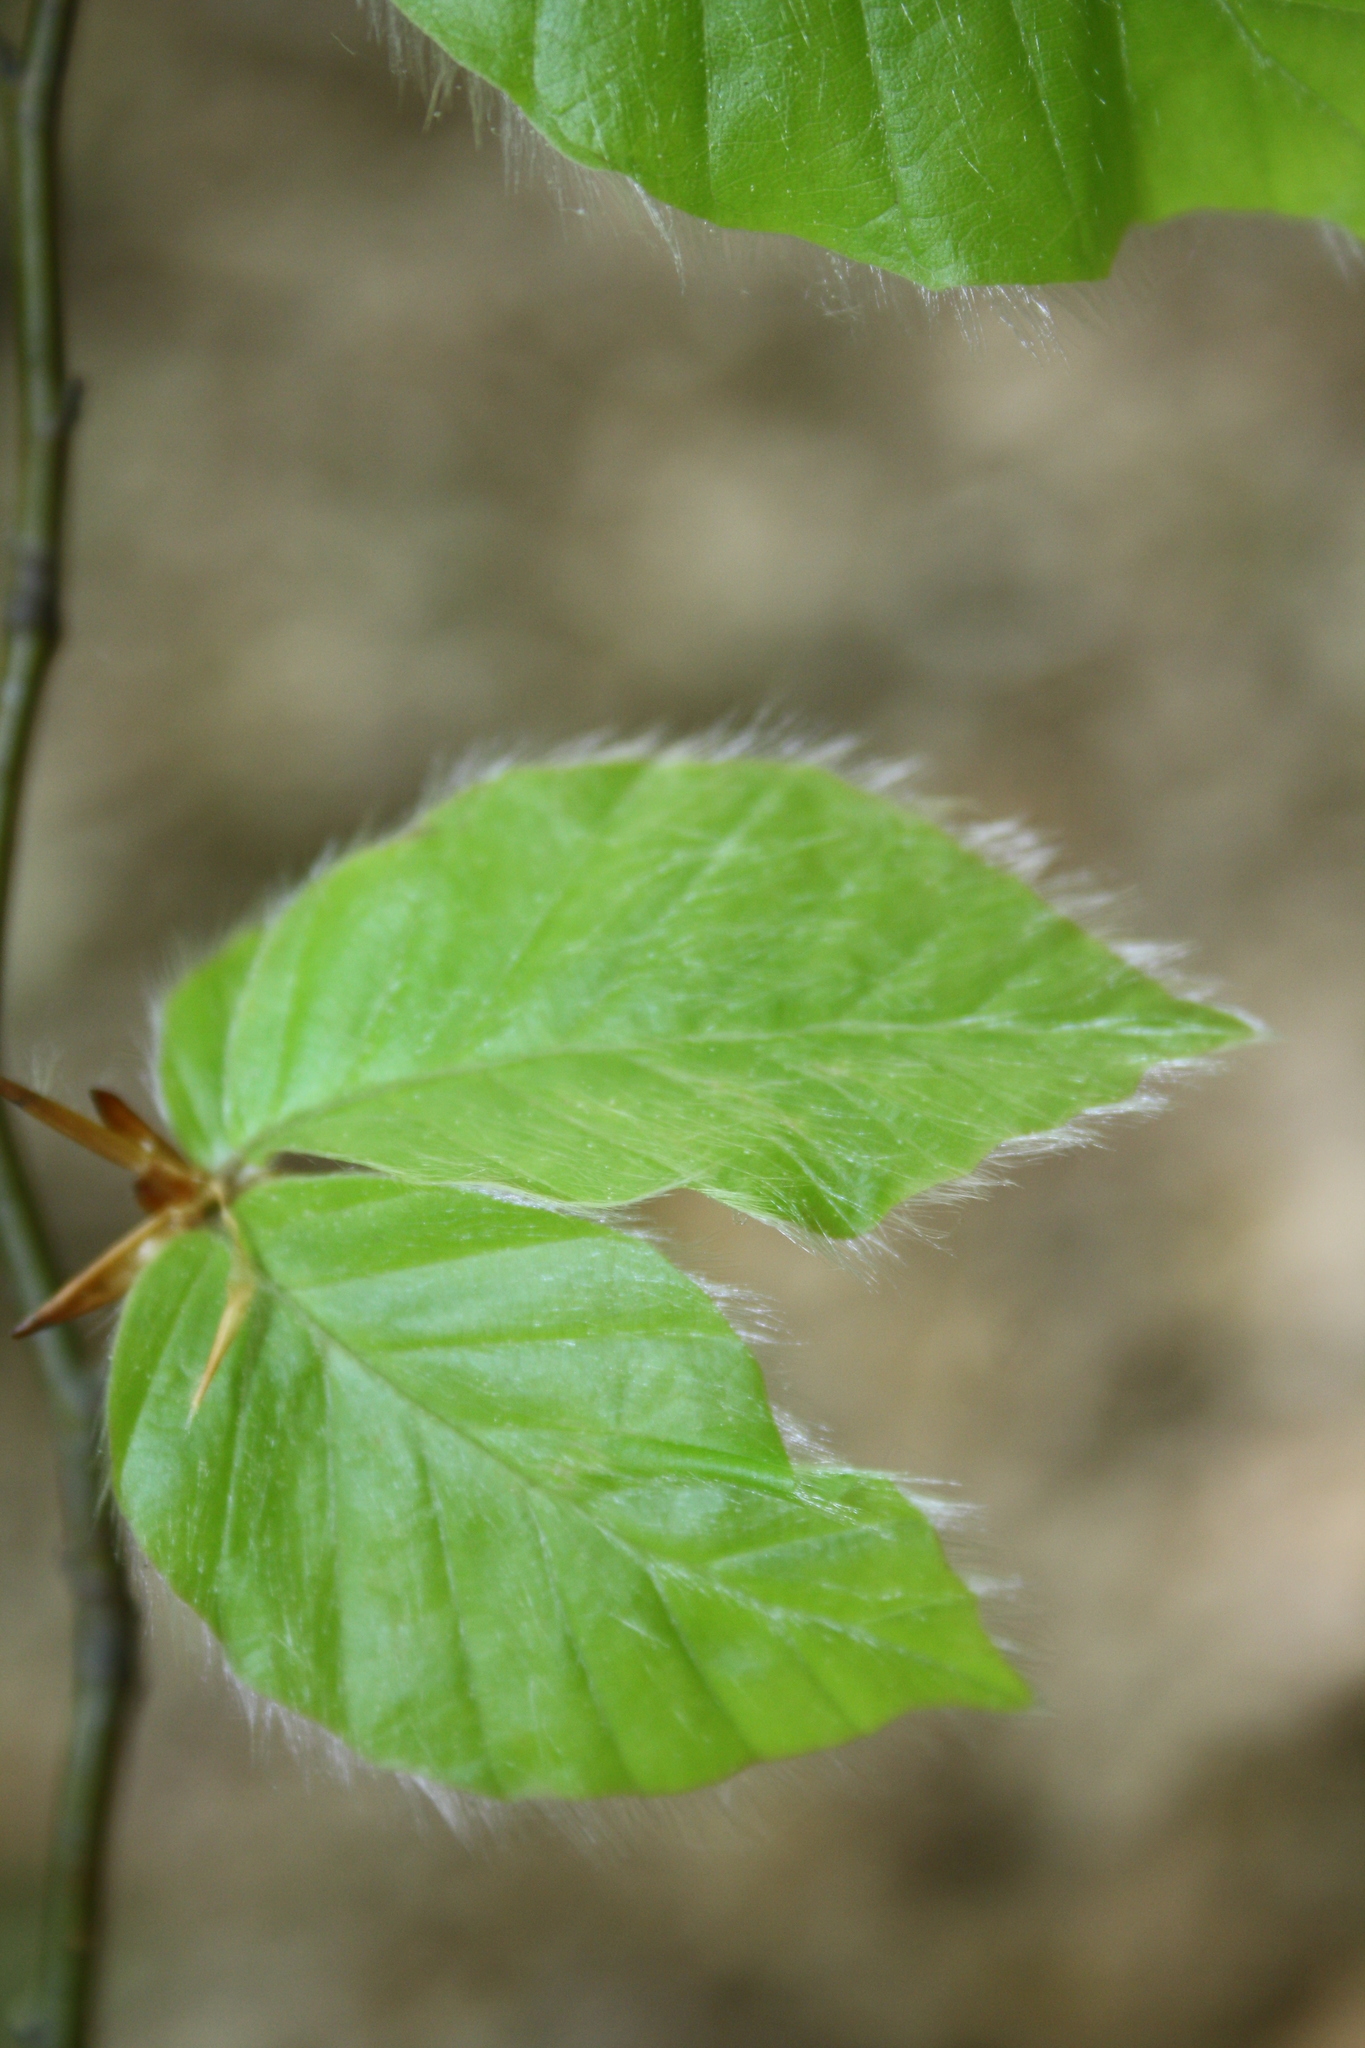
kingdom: Plantae
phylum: Tracheophyta
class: Magnoliopsida
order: Fagales
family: Fagaceae
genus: Fagus
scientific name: Fagus sylvatica
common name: Beech
